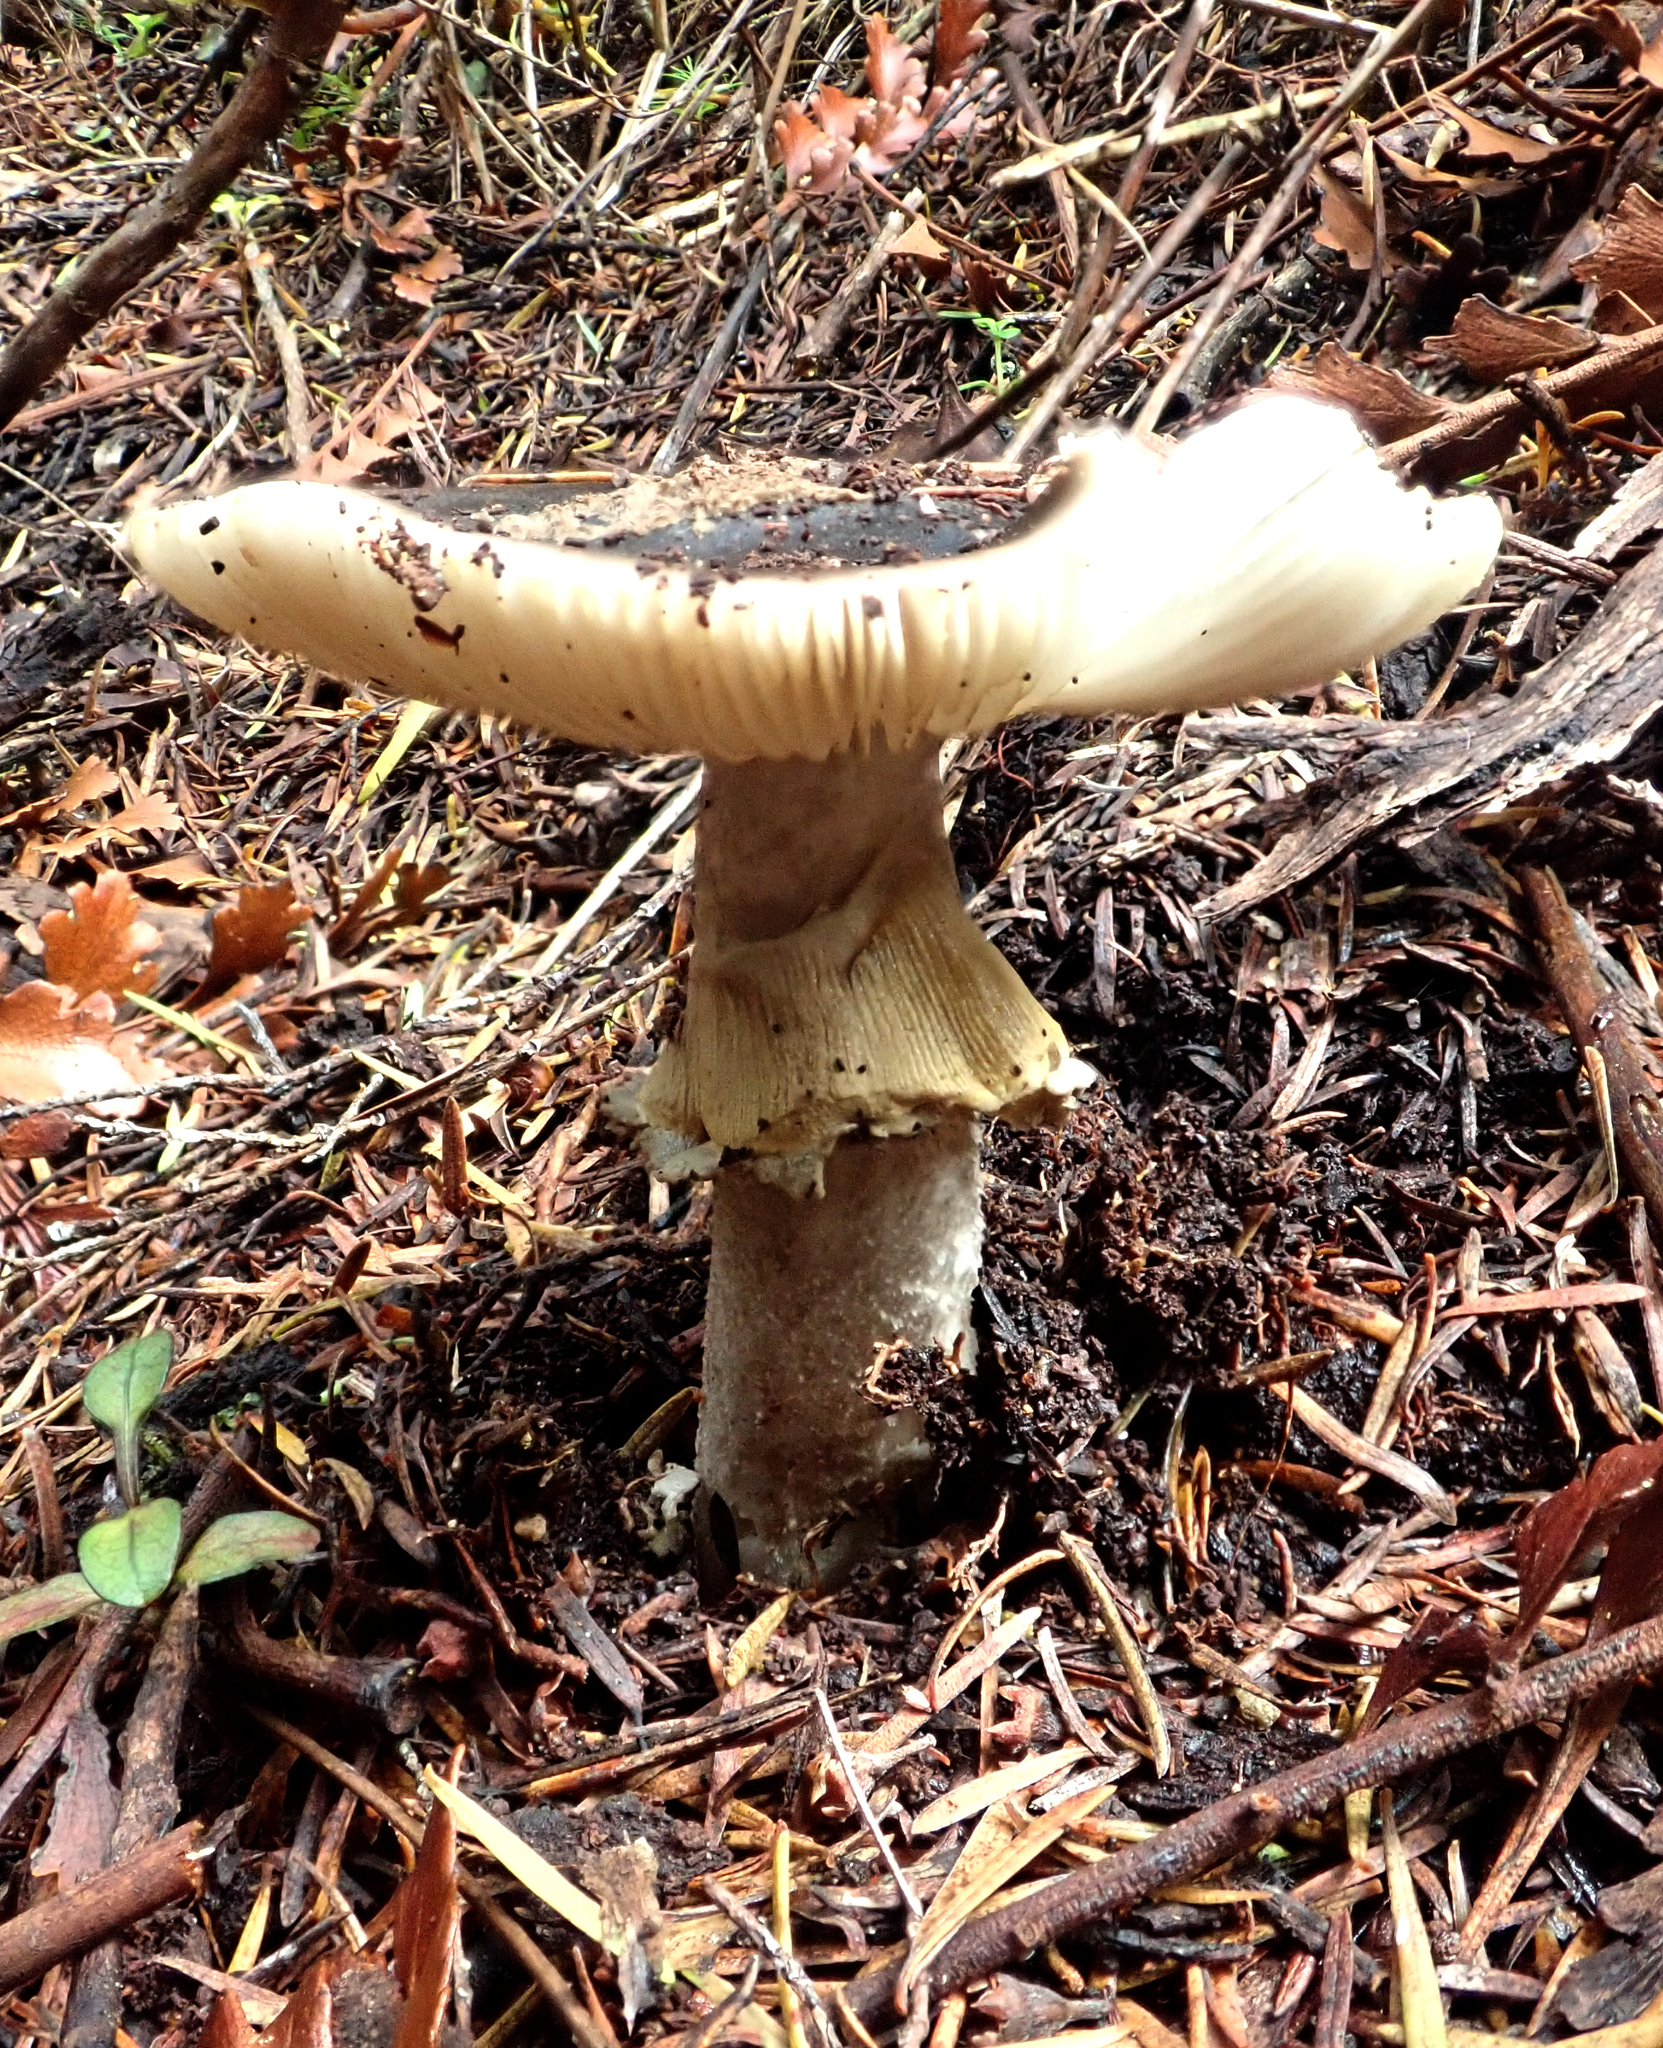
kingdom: Fungi
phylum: Basidiomycota
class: Agaricomycetes
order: Agaricales
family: Amanitaceae
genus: Amanita
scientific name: Amanita nothofagi
